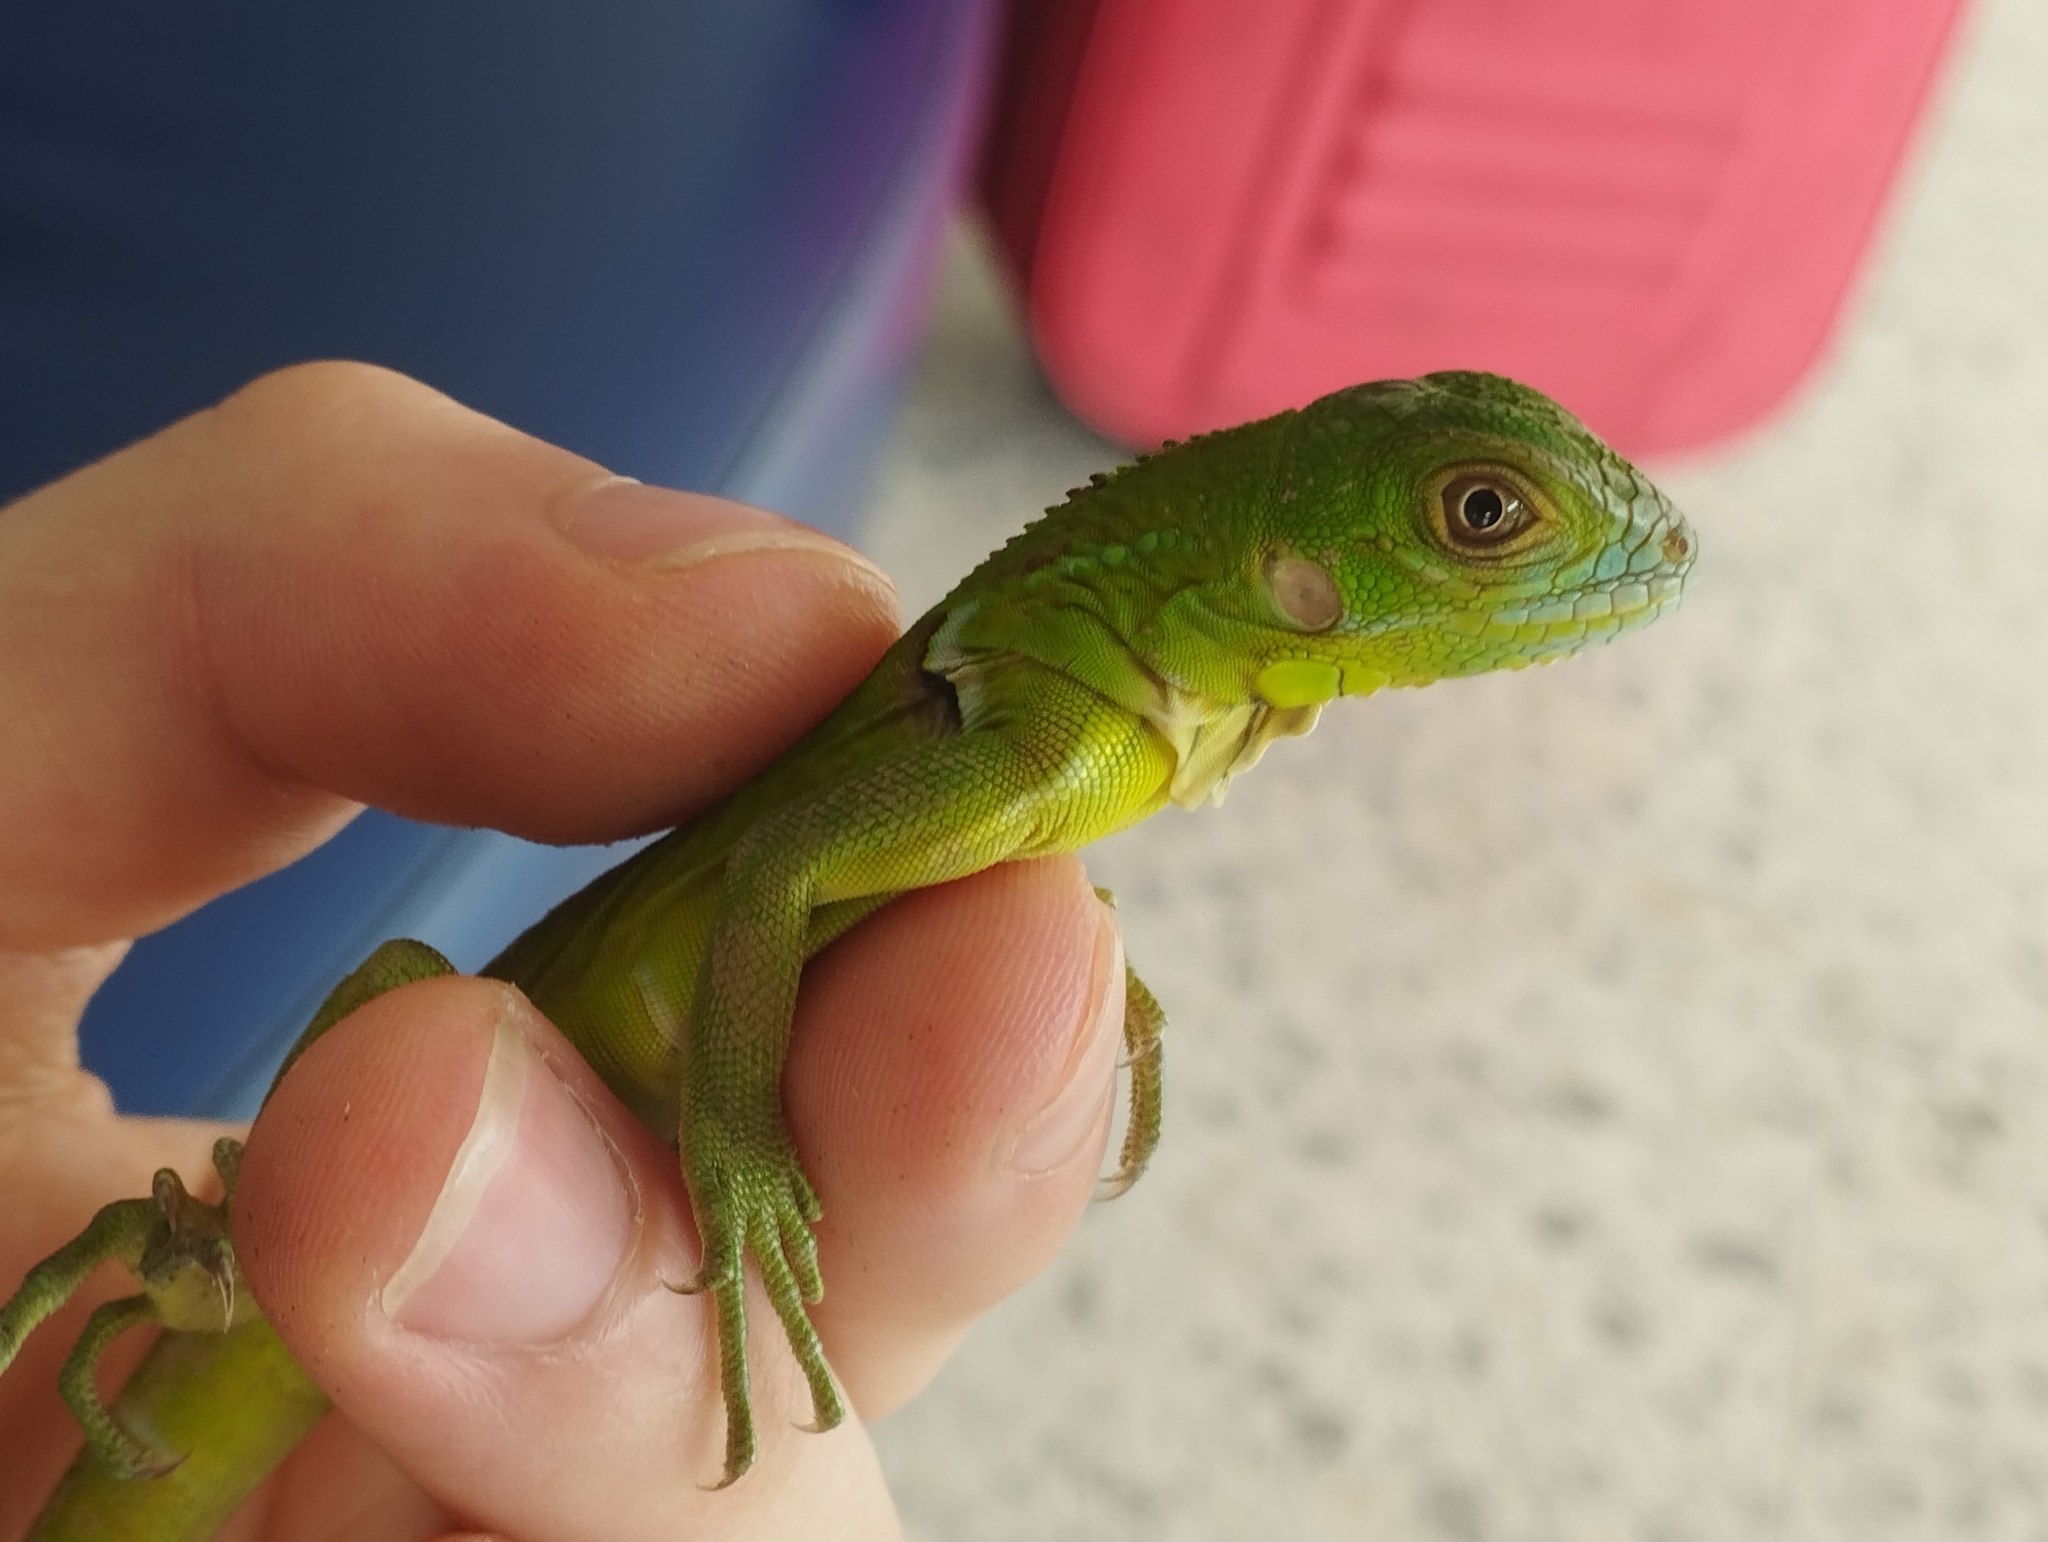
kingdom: Animalia
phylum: Chordata
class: Squamata
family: Iguanidae
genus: Iguana
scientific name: Iguana iguana
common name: Green iguana
